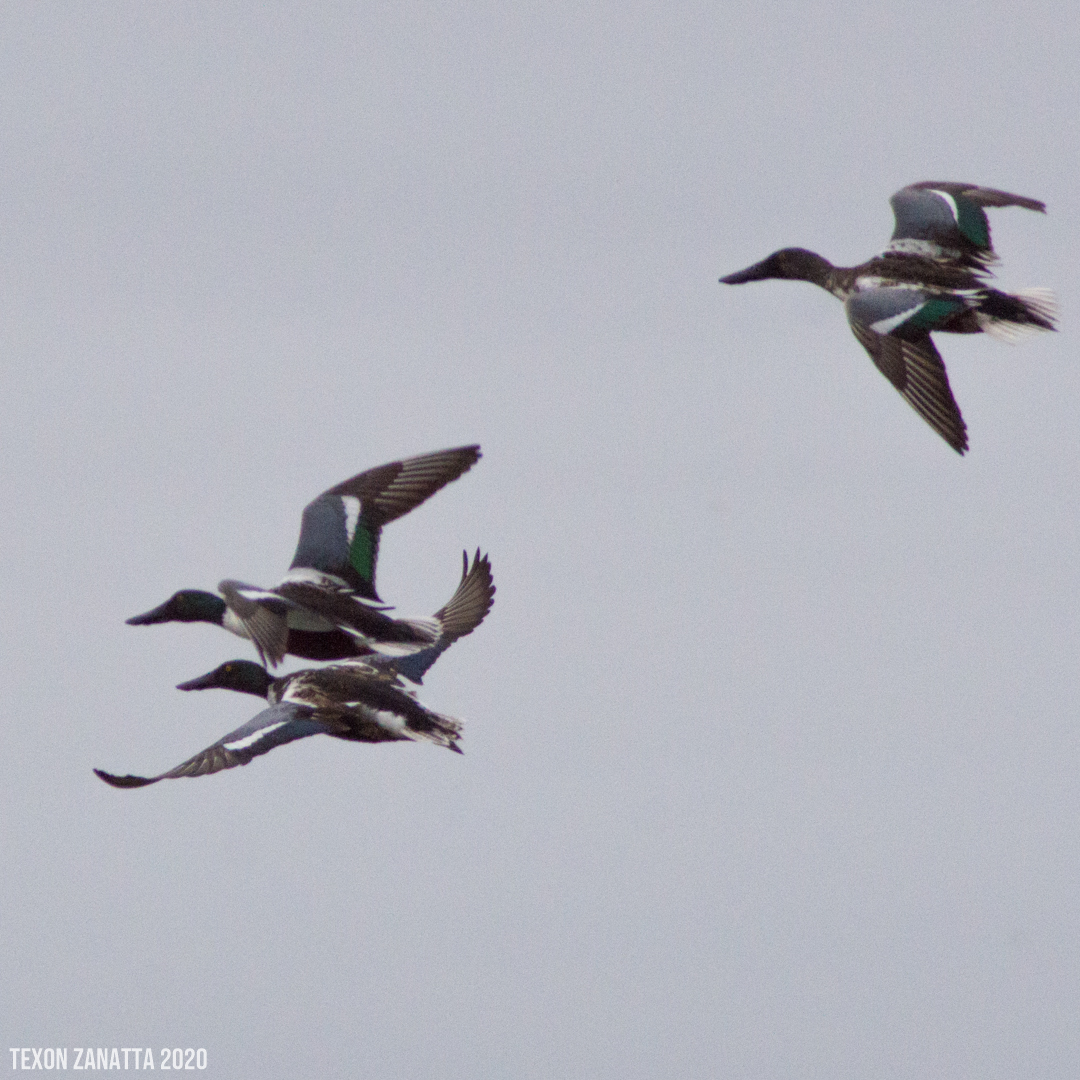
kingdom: Animalia
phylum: Chordata
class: Aves
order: Anseriformes
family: Anatidae
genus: Spatula
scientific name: Spatula clypeata
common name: Northern shoveler
